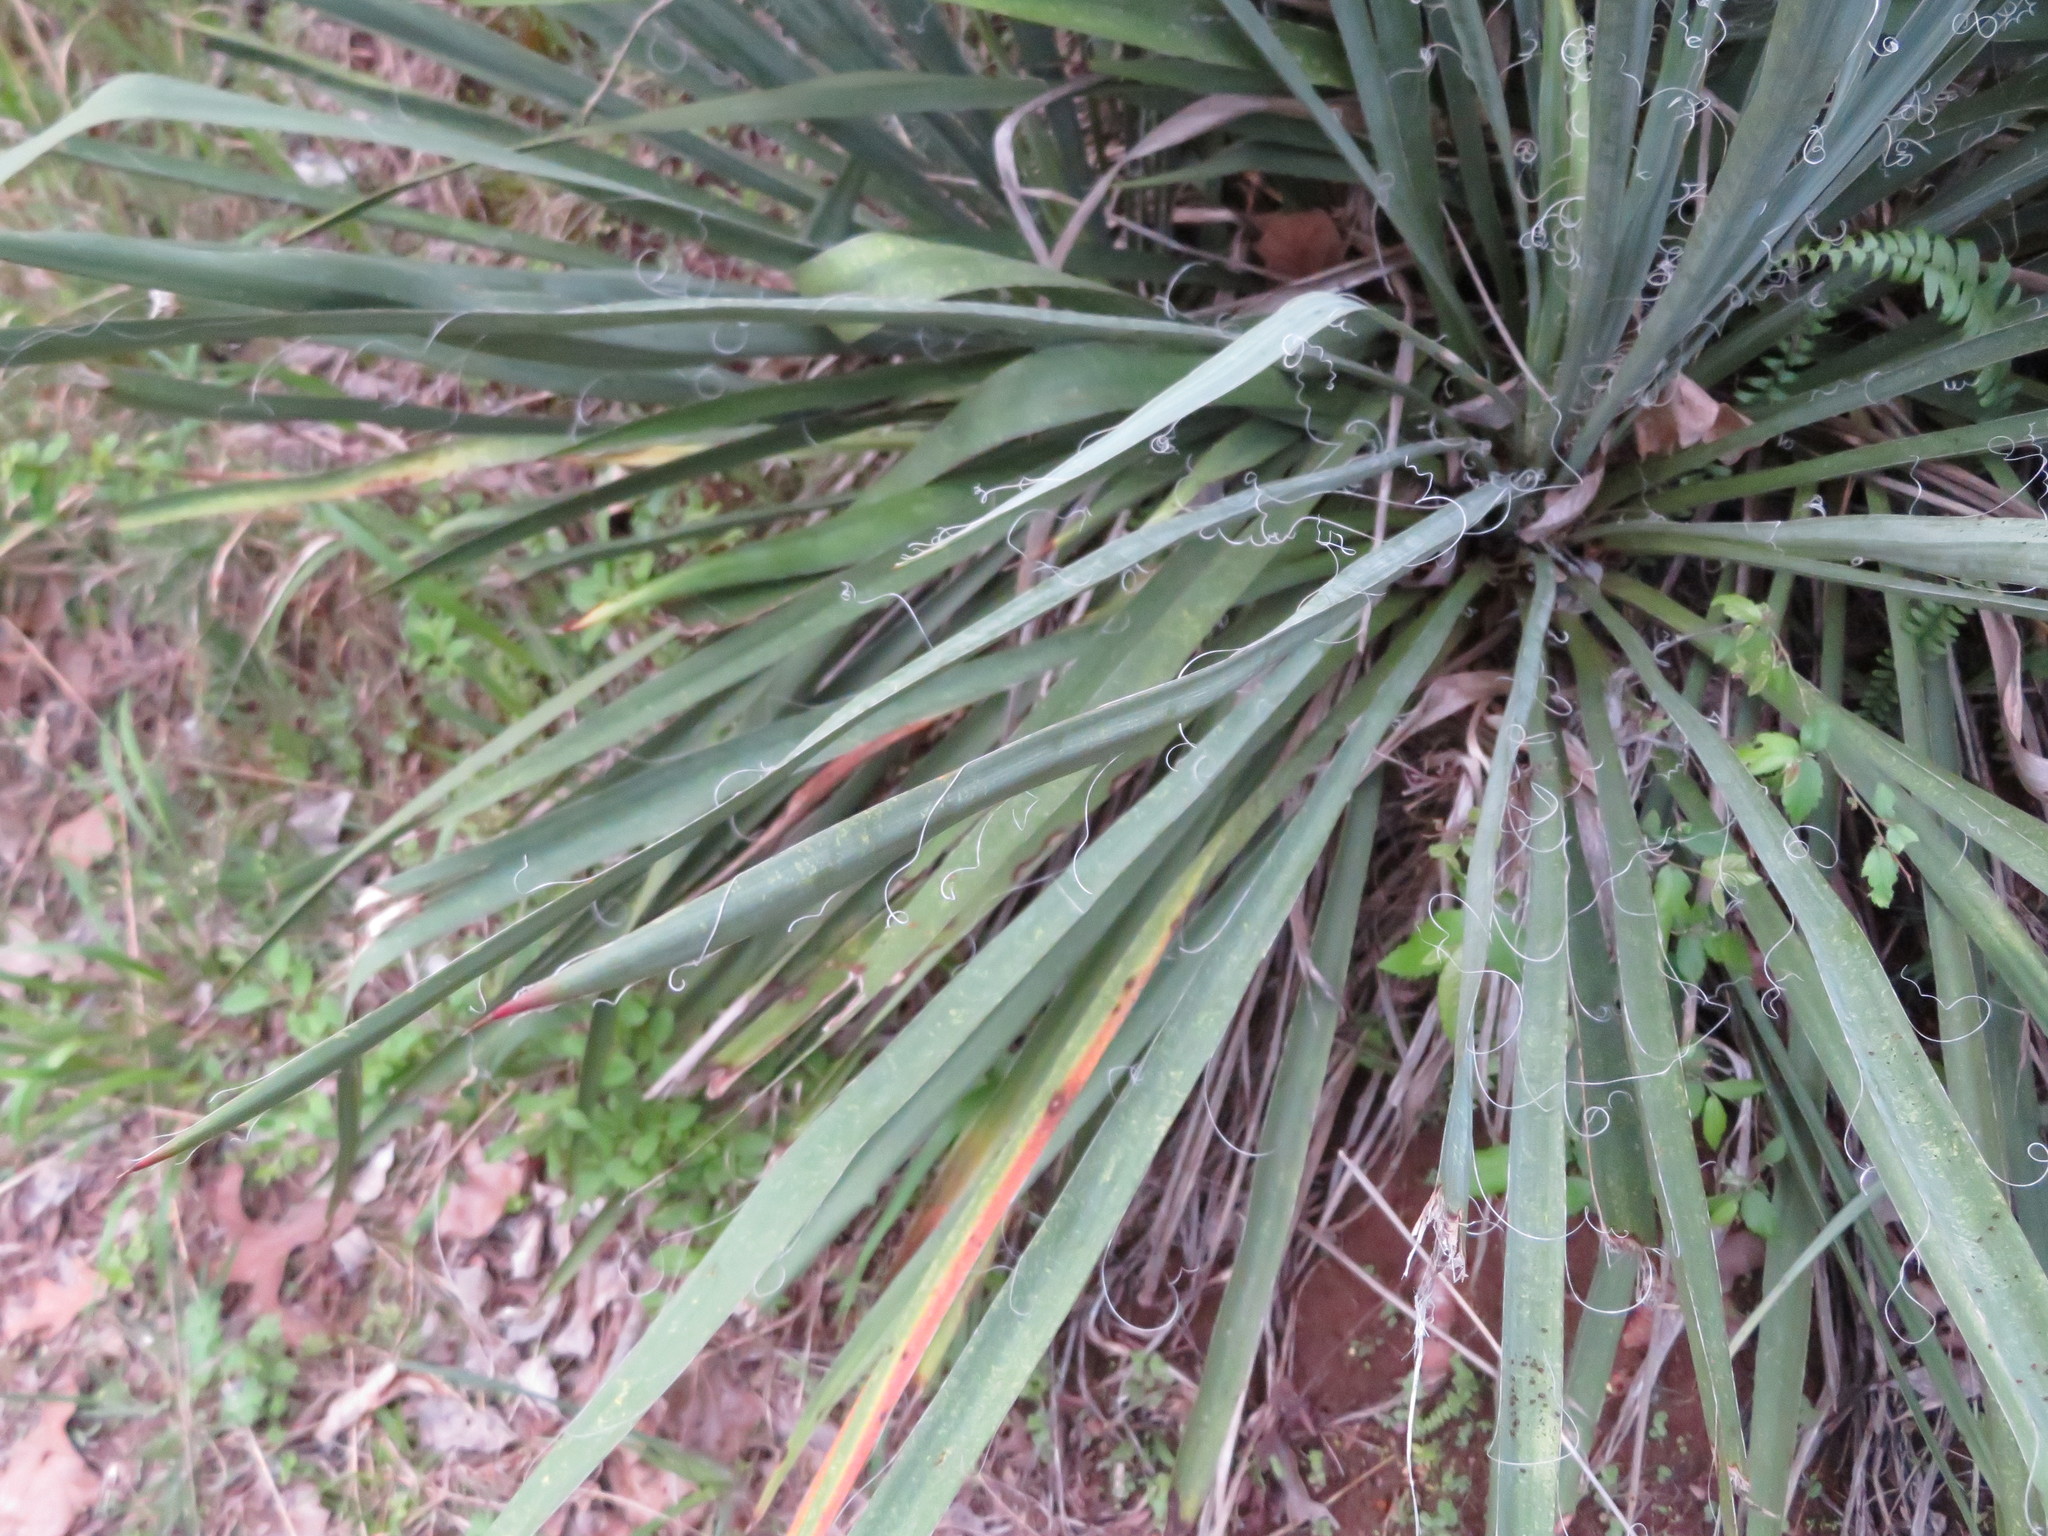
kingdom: Plantae
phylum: Tracheophyta
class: Liliopsida
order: Asparagales
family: Asparagaceae
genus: Yucca
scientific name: Yucca filamentosa
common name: Adam's-needle
